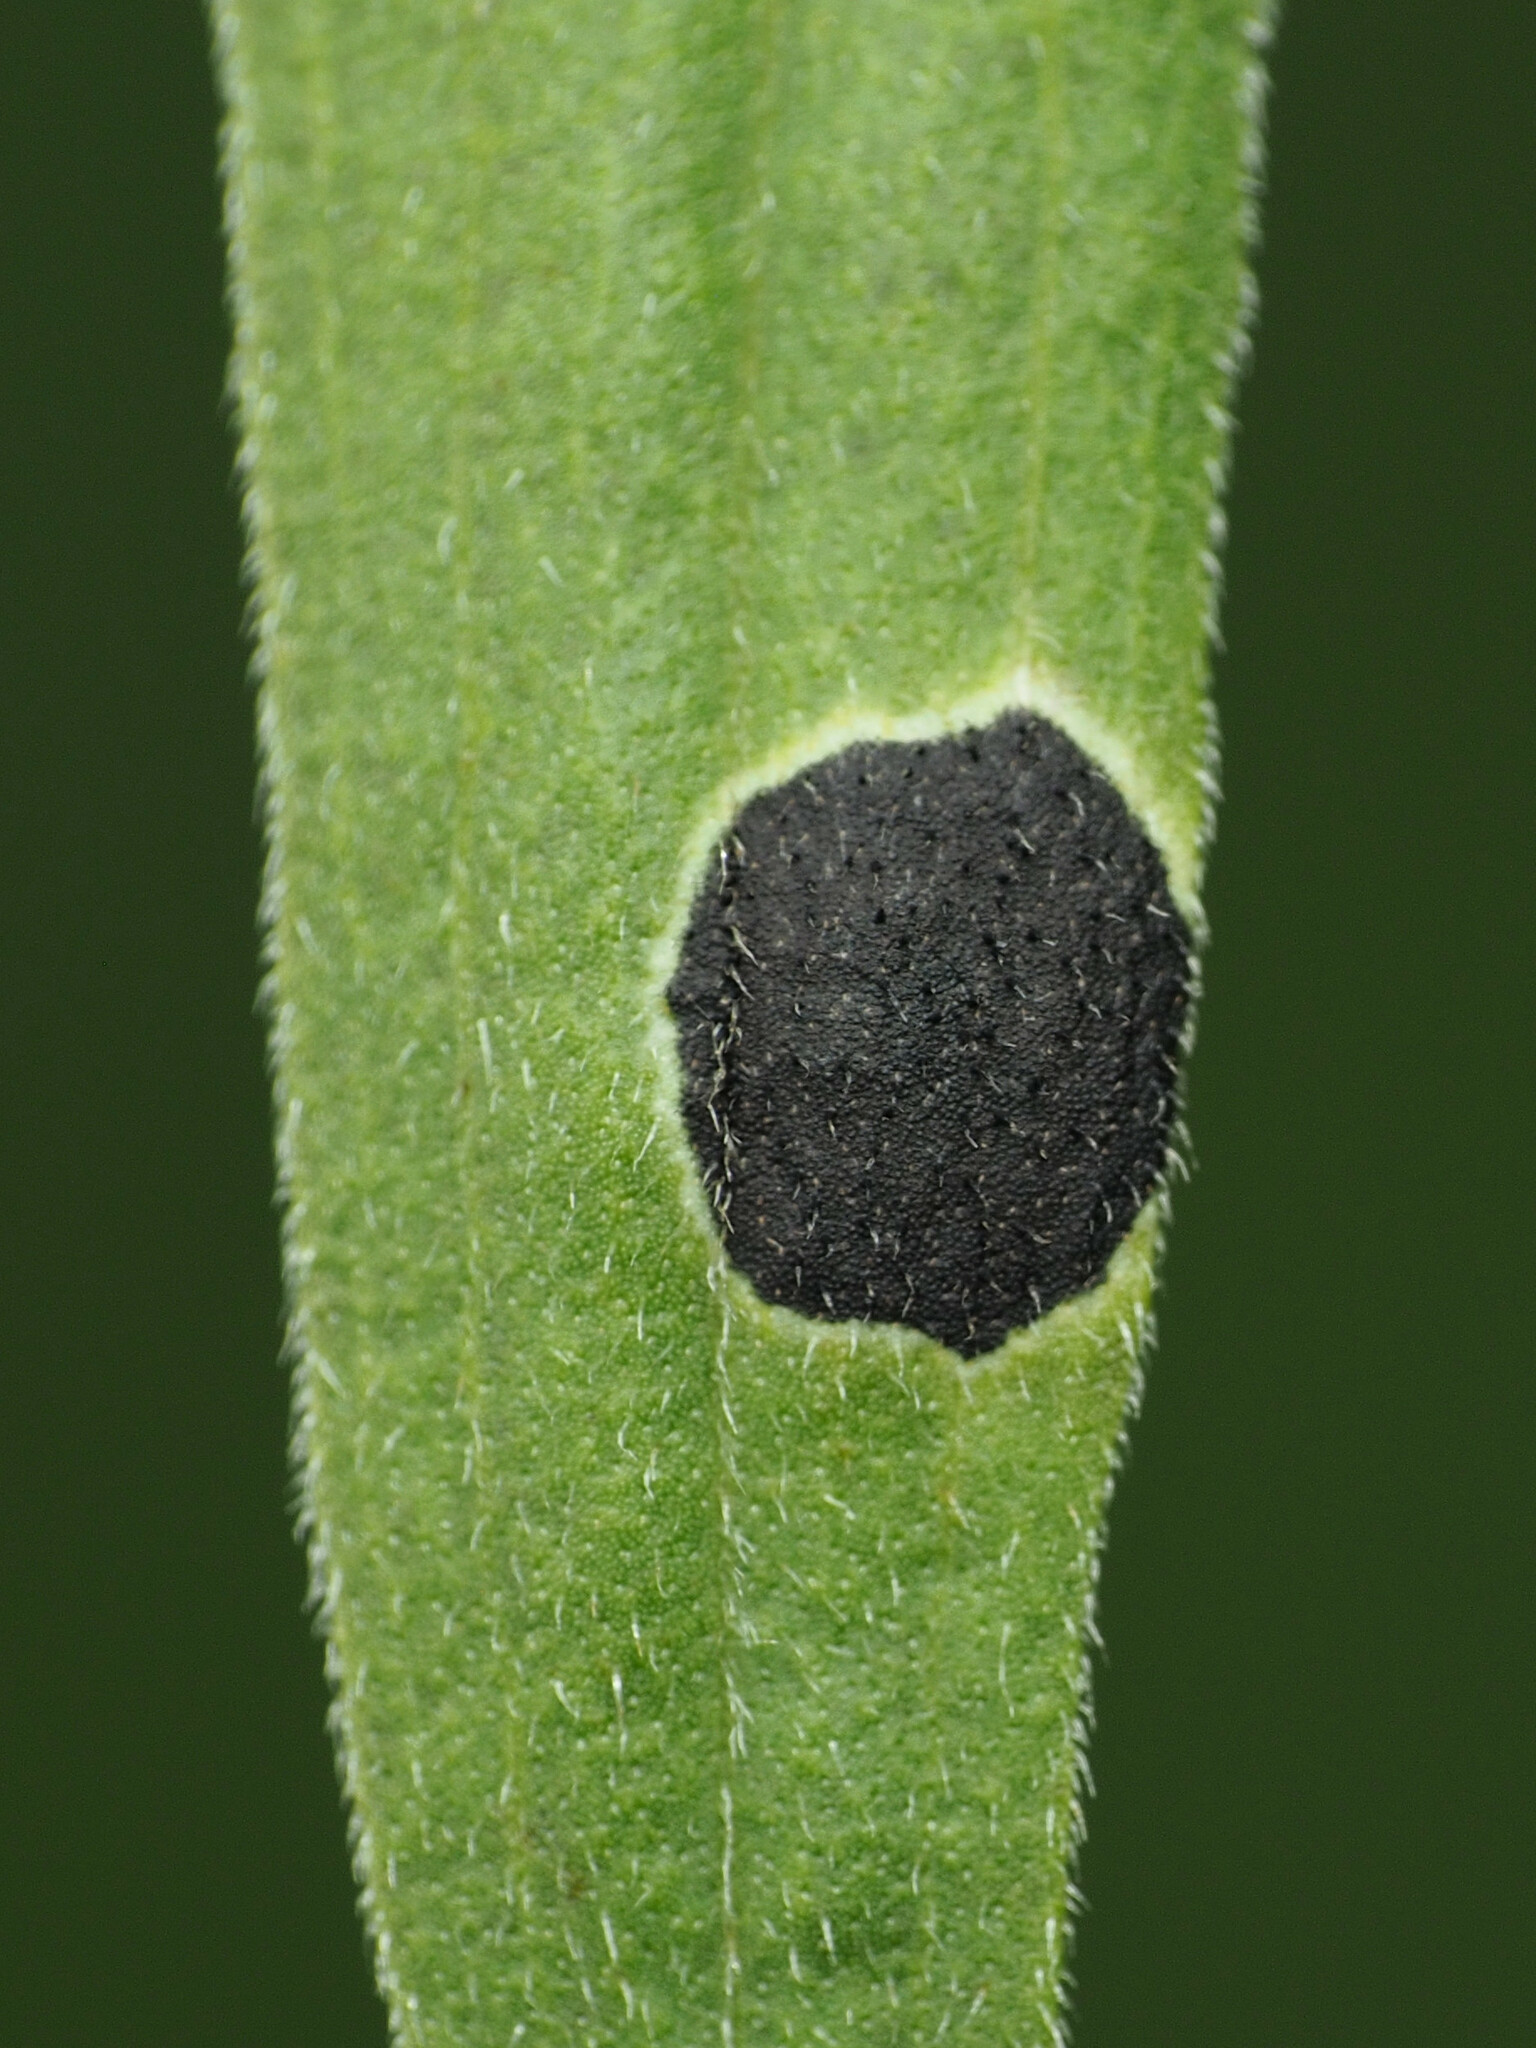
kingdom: Animalia
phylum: Arthropoda
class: Insecta
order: Diptera
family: Cecidomyiidae
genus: Asteromyia
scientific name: Asteromyia euthamiae
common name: Euthamia leaf gall midge
